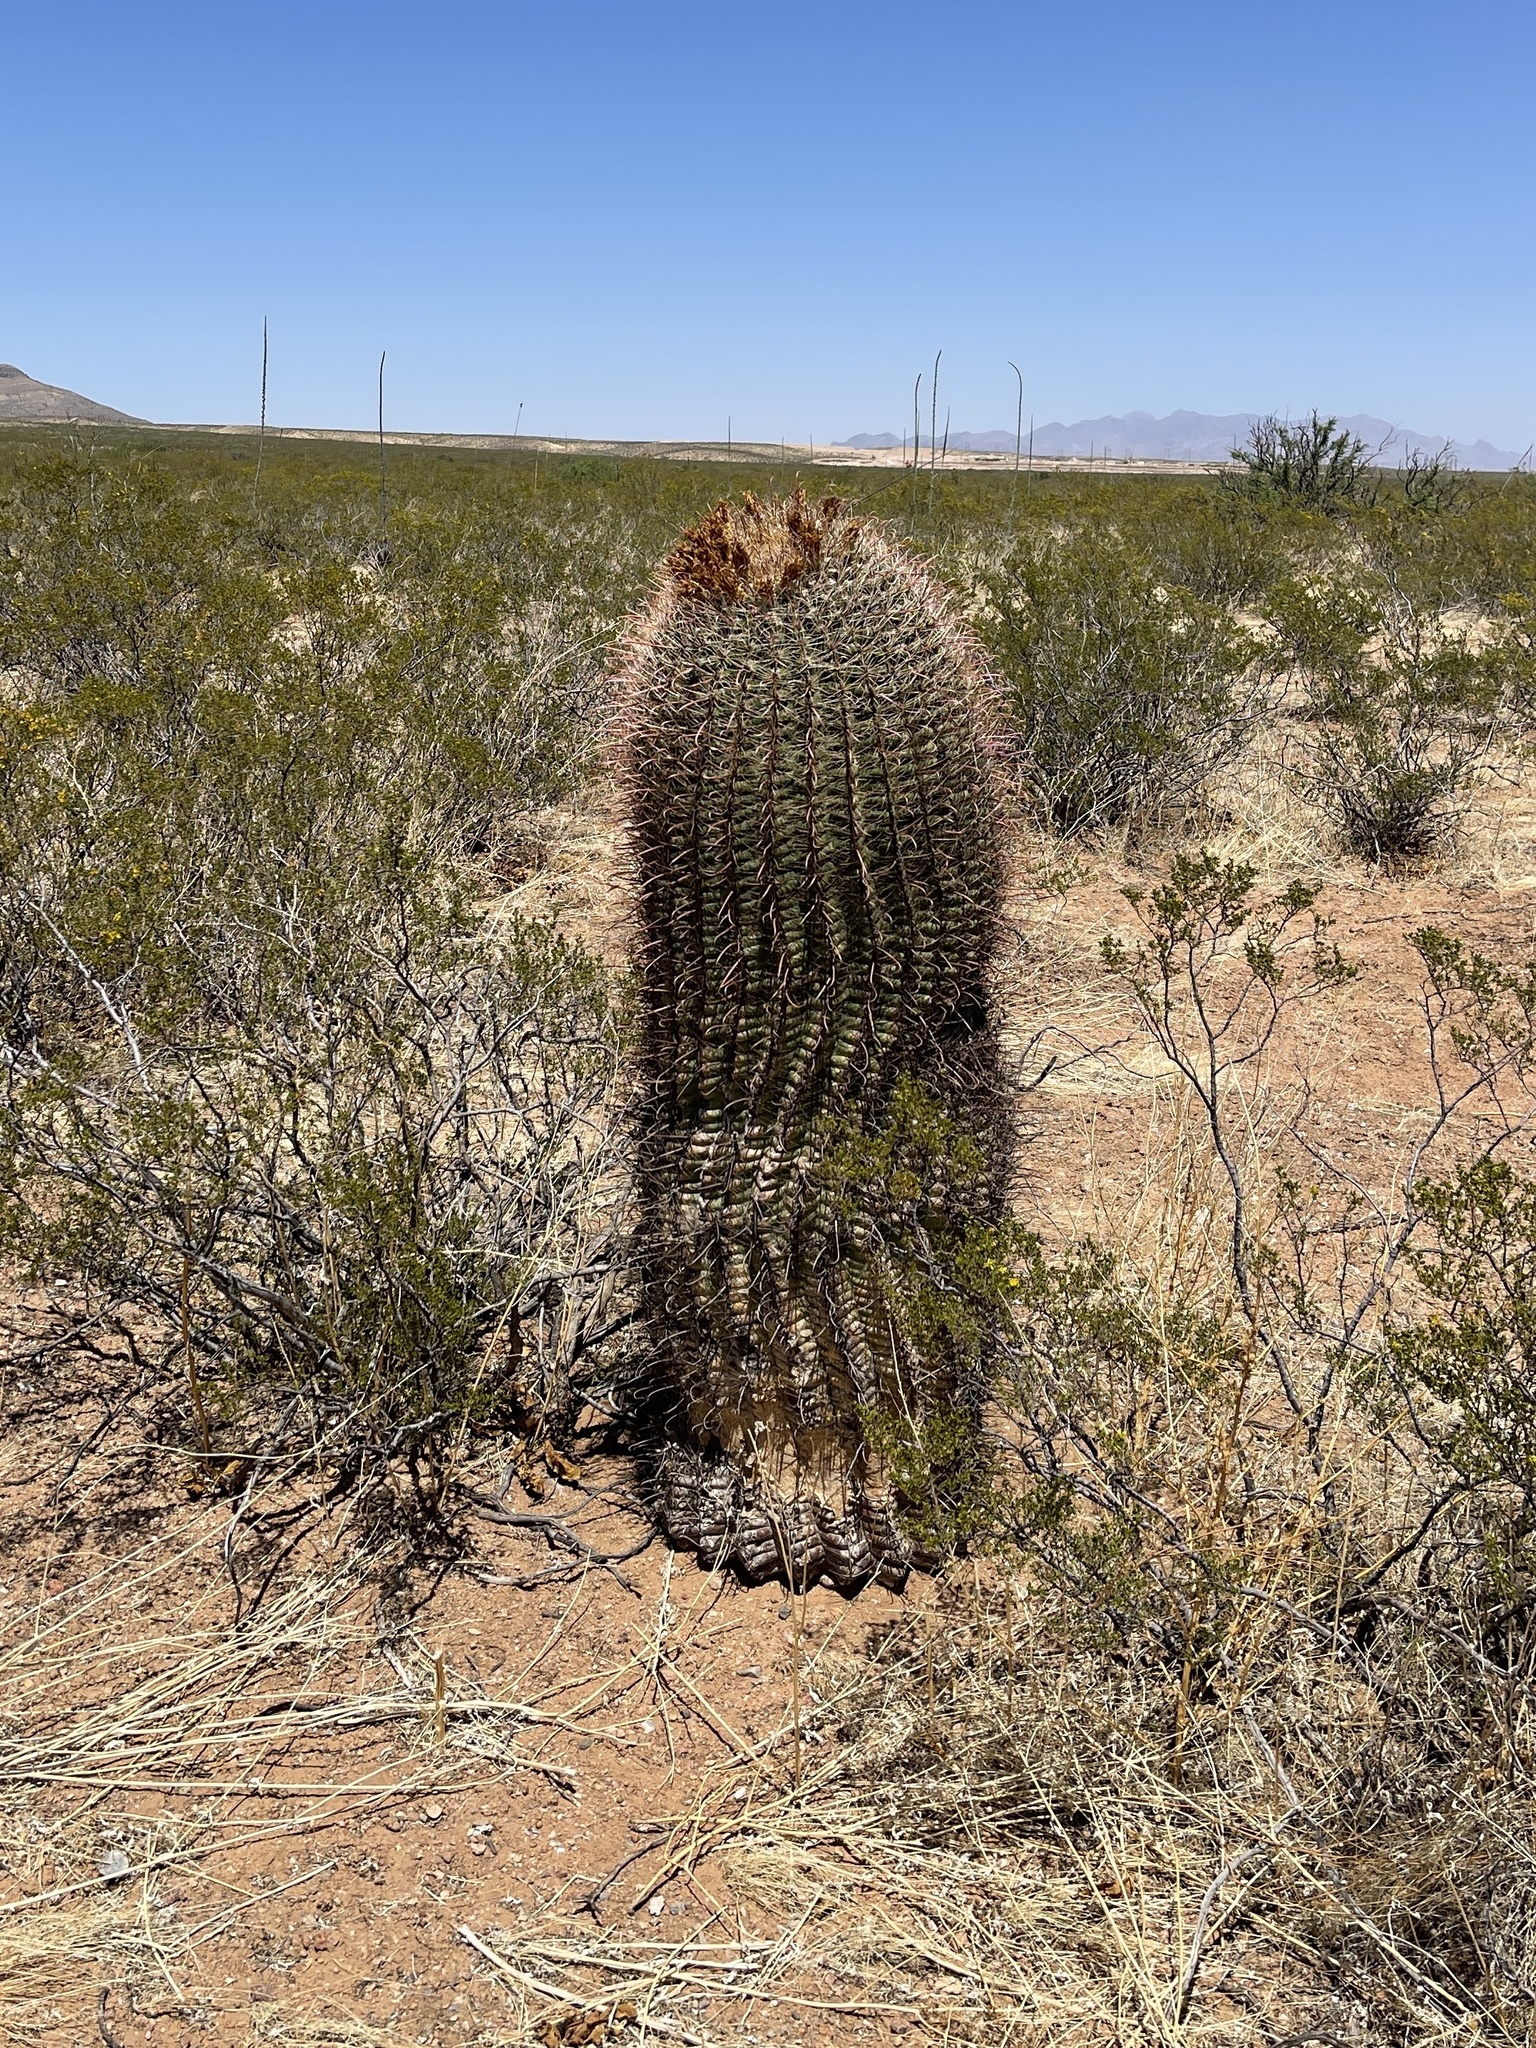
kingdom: Plantae
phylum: Tracheophyta
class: Magnoliopsida
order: Caryophyllales
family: Cactaceae
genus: Ferocactus
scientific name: Ferocactus wislizeni
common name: Candy barrel cactus
